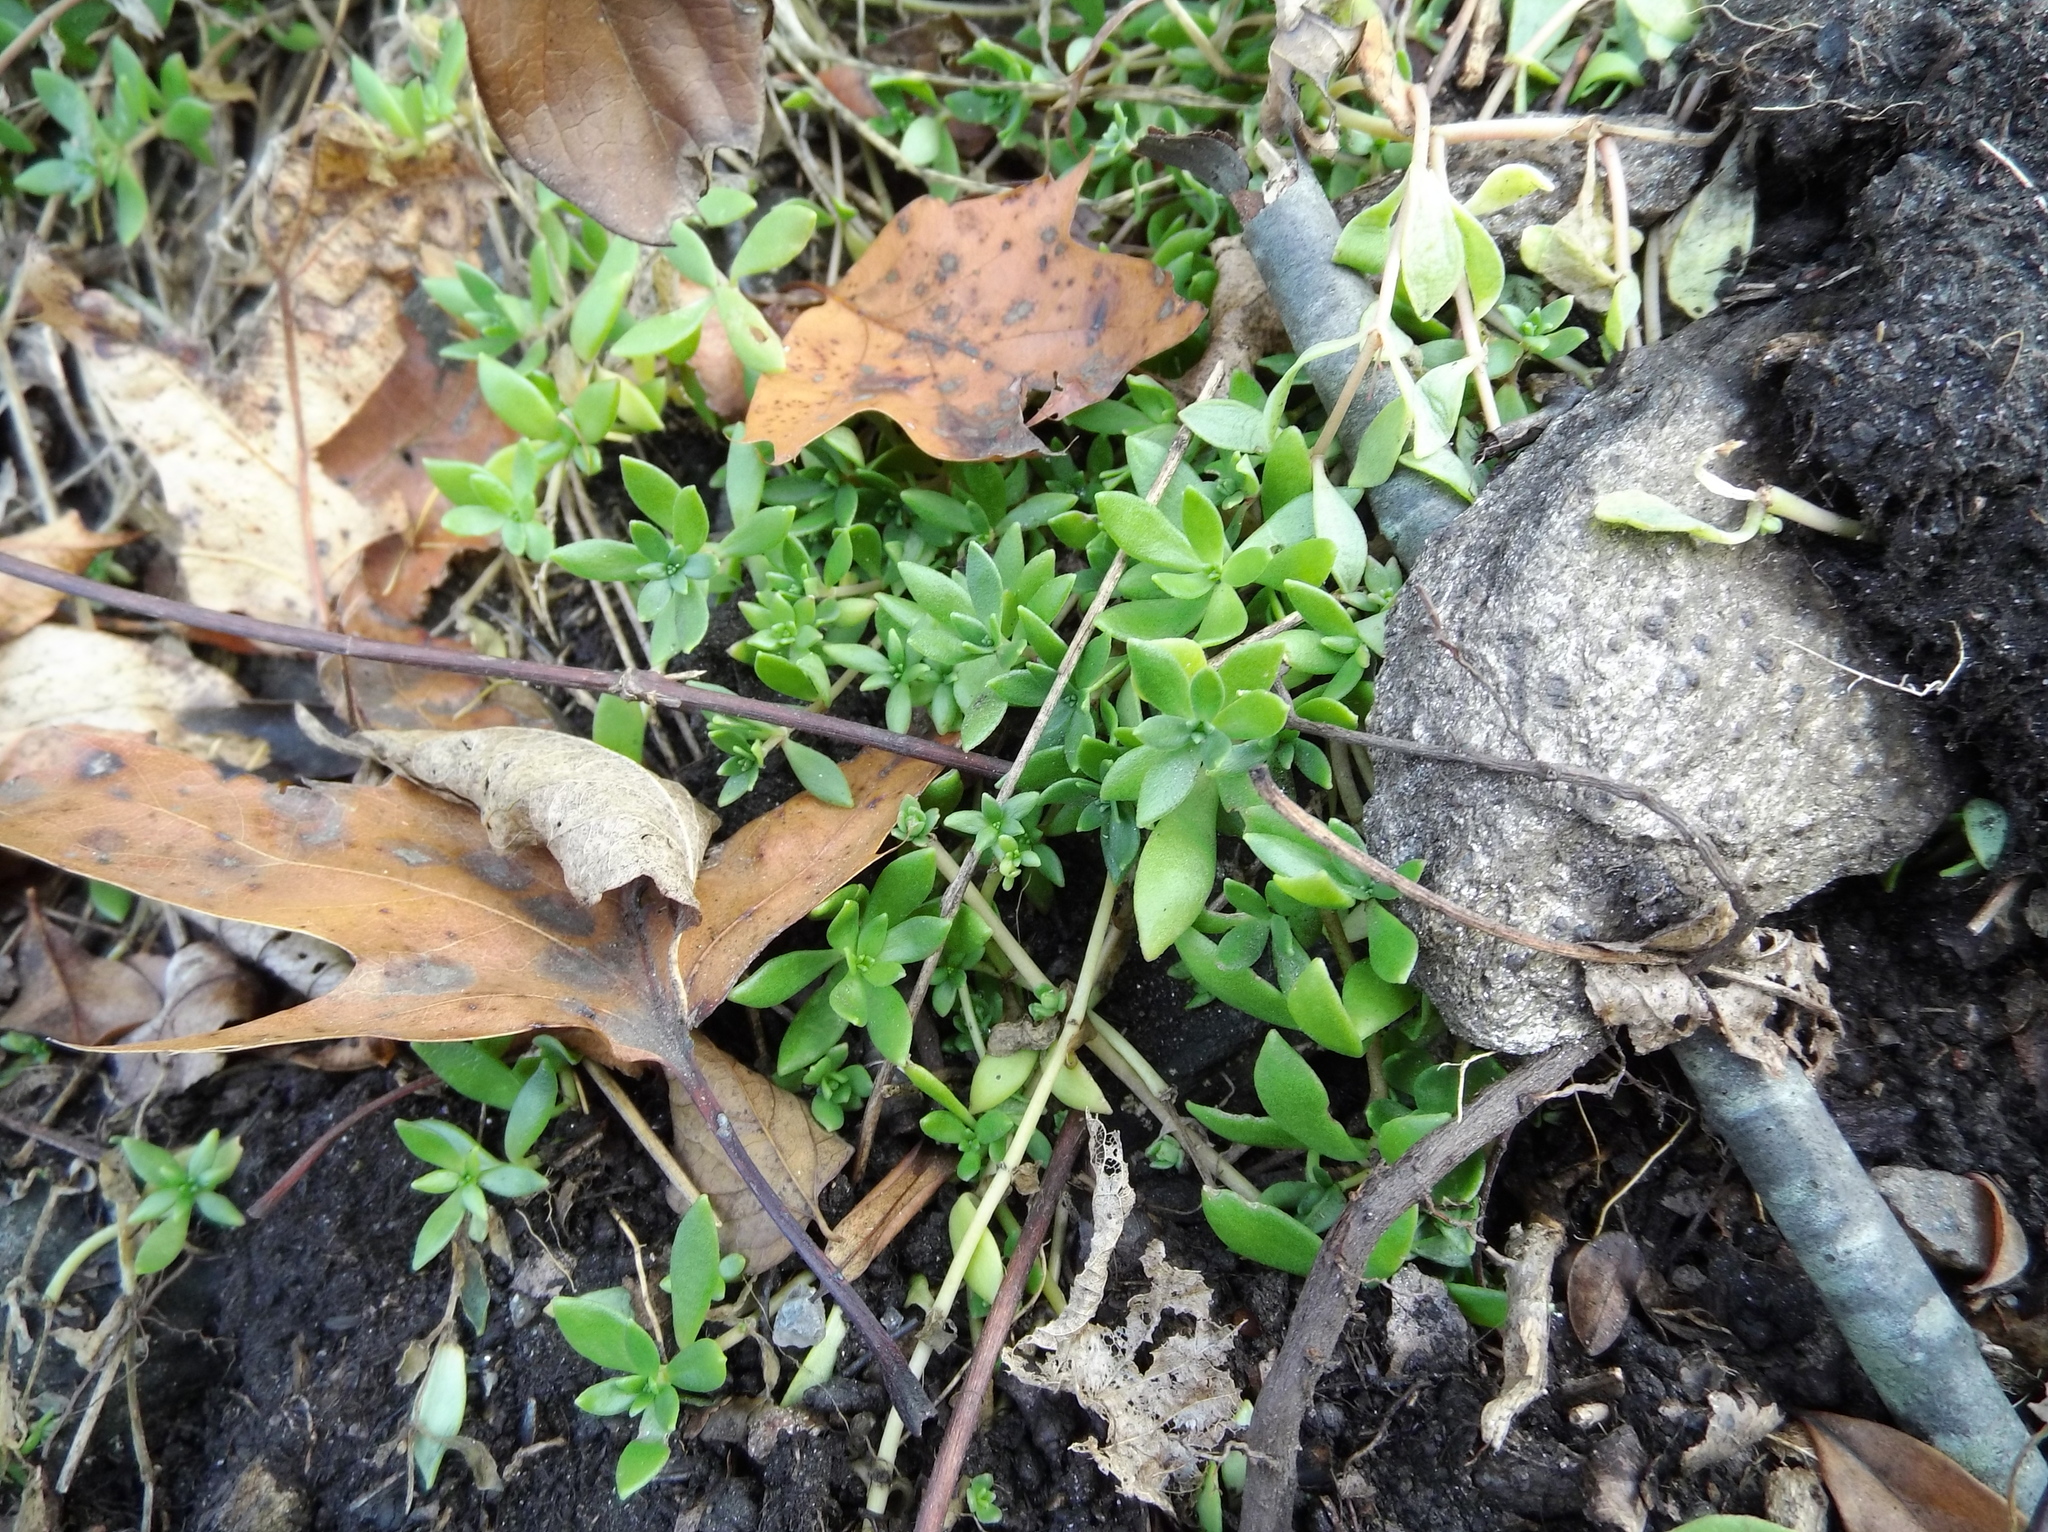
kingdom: Plantae
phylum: Tracheophyta
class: Magnoliopsida
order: Saxifragales
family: Crassulaceae
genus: Sedum
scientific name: Sedum sarmentosum
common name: Stringy stonecrop
